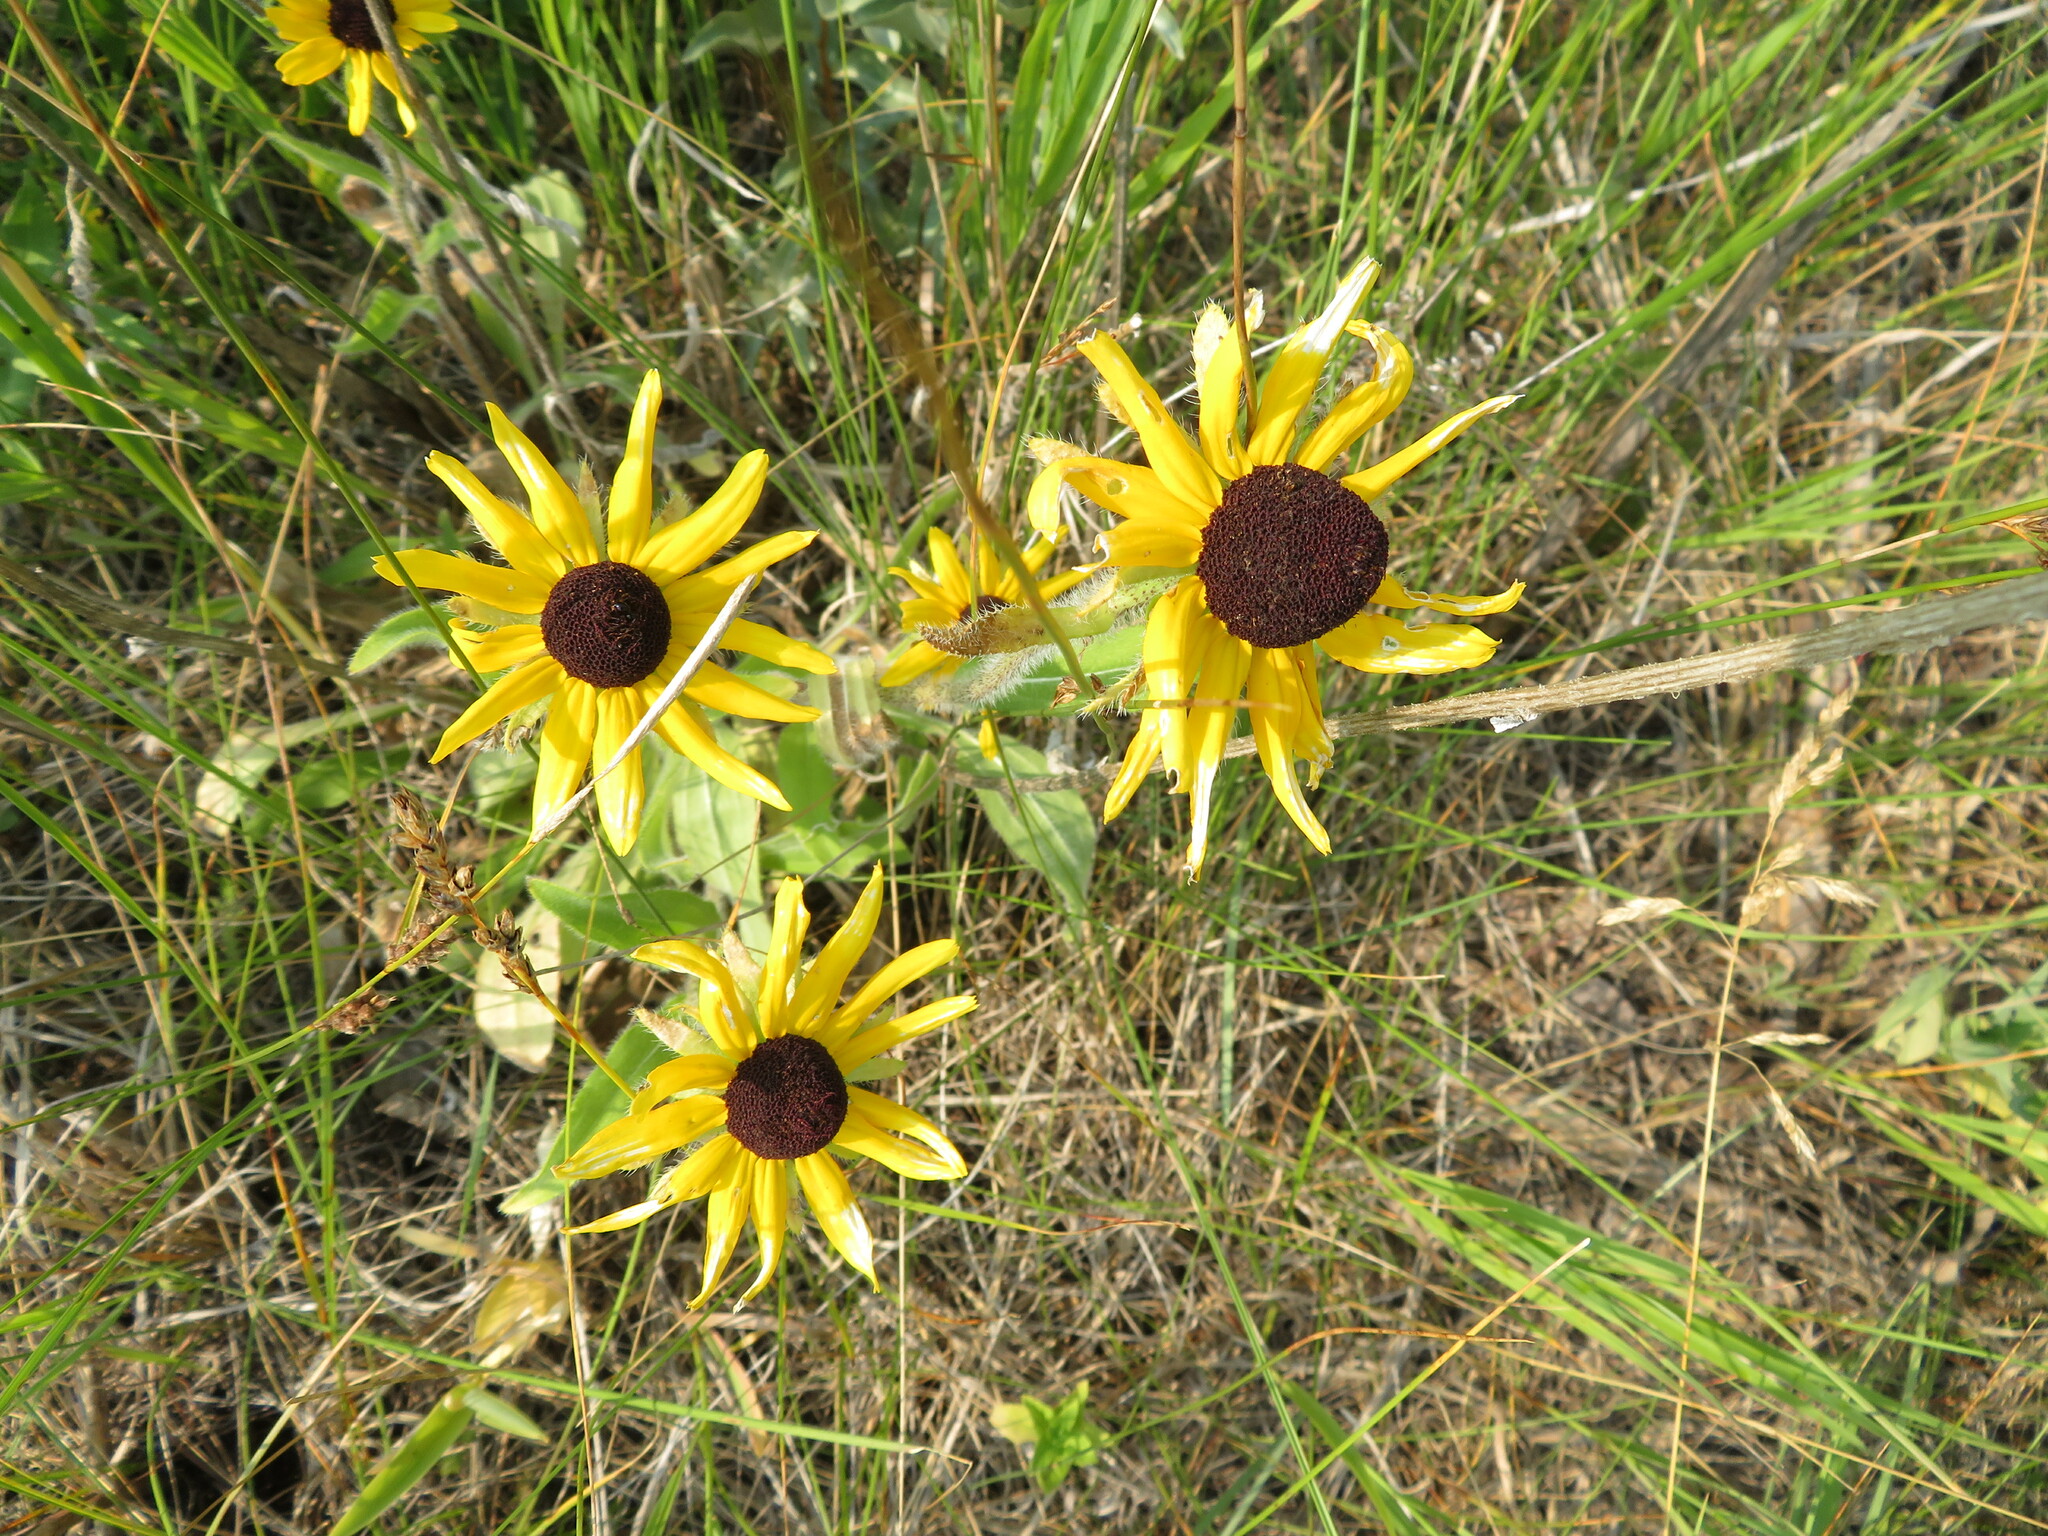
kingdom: Plantae
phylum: Tracheophyta
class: Magnoliopsida
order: Asterales
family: Asteraceae
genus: Rudbeckia
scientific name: Rudbeckia hirta
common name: Black-eyed-susan
